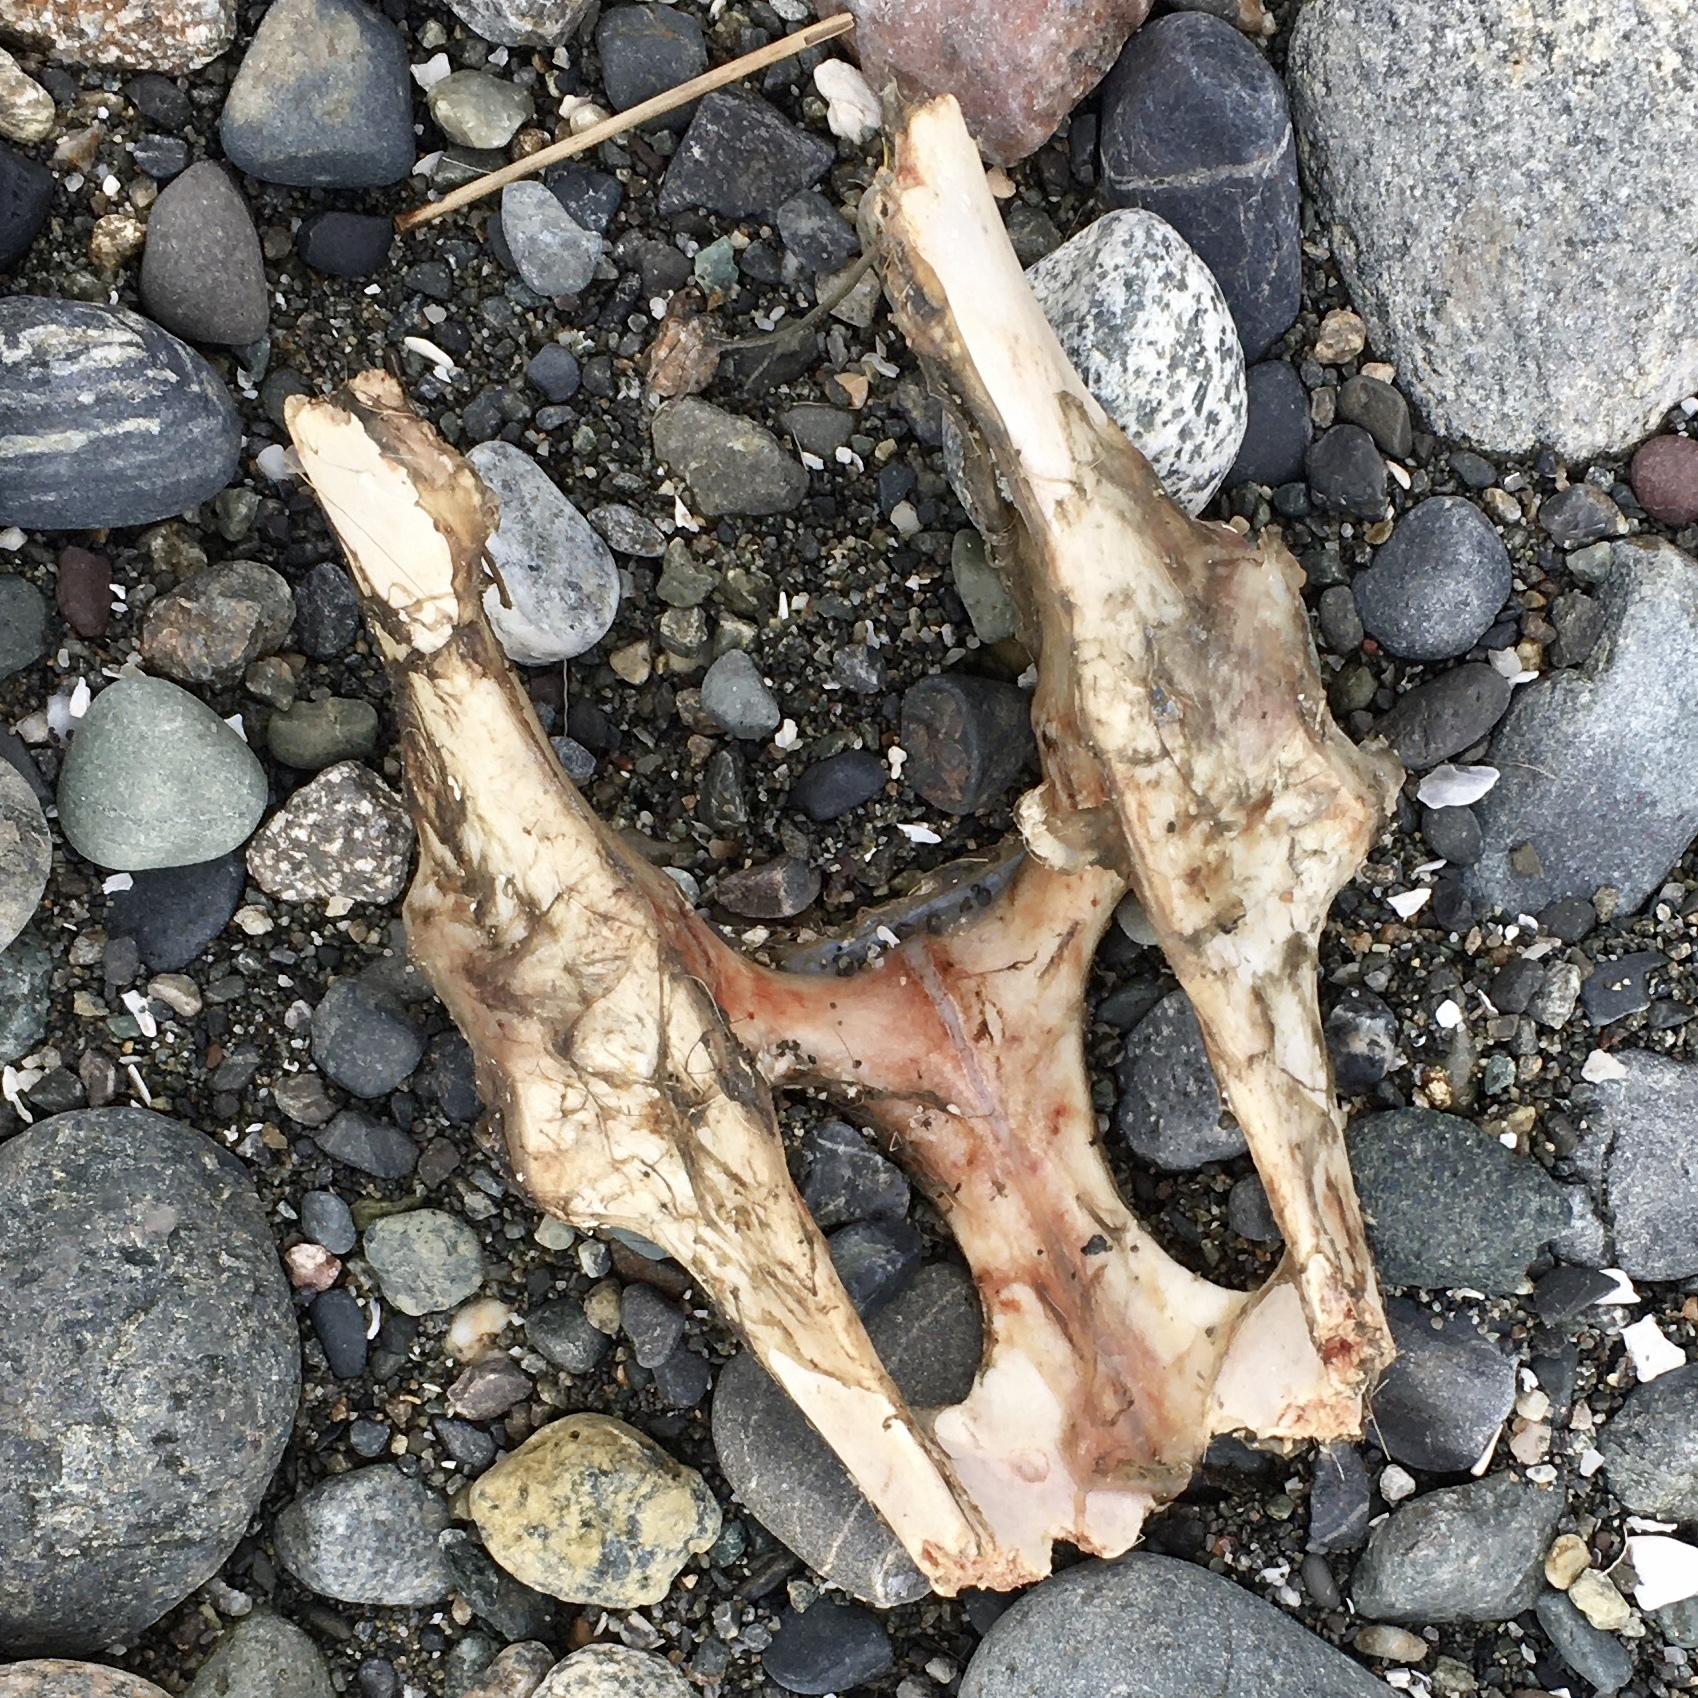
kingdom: Animalia
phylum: Chordata
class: Mammalia
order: Artiodactyla
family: Cervidae
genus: Odocoileus
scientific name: Odocoileus hemionus
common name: Mule deer
